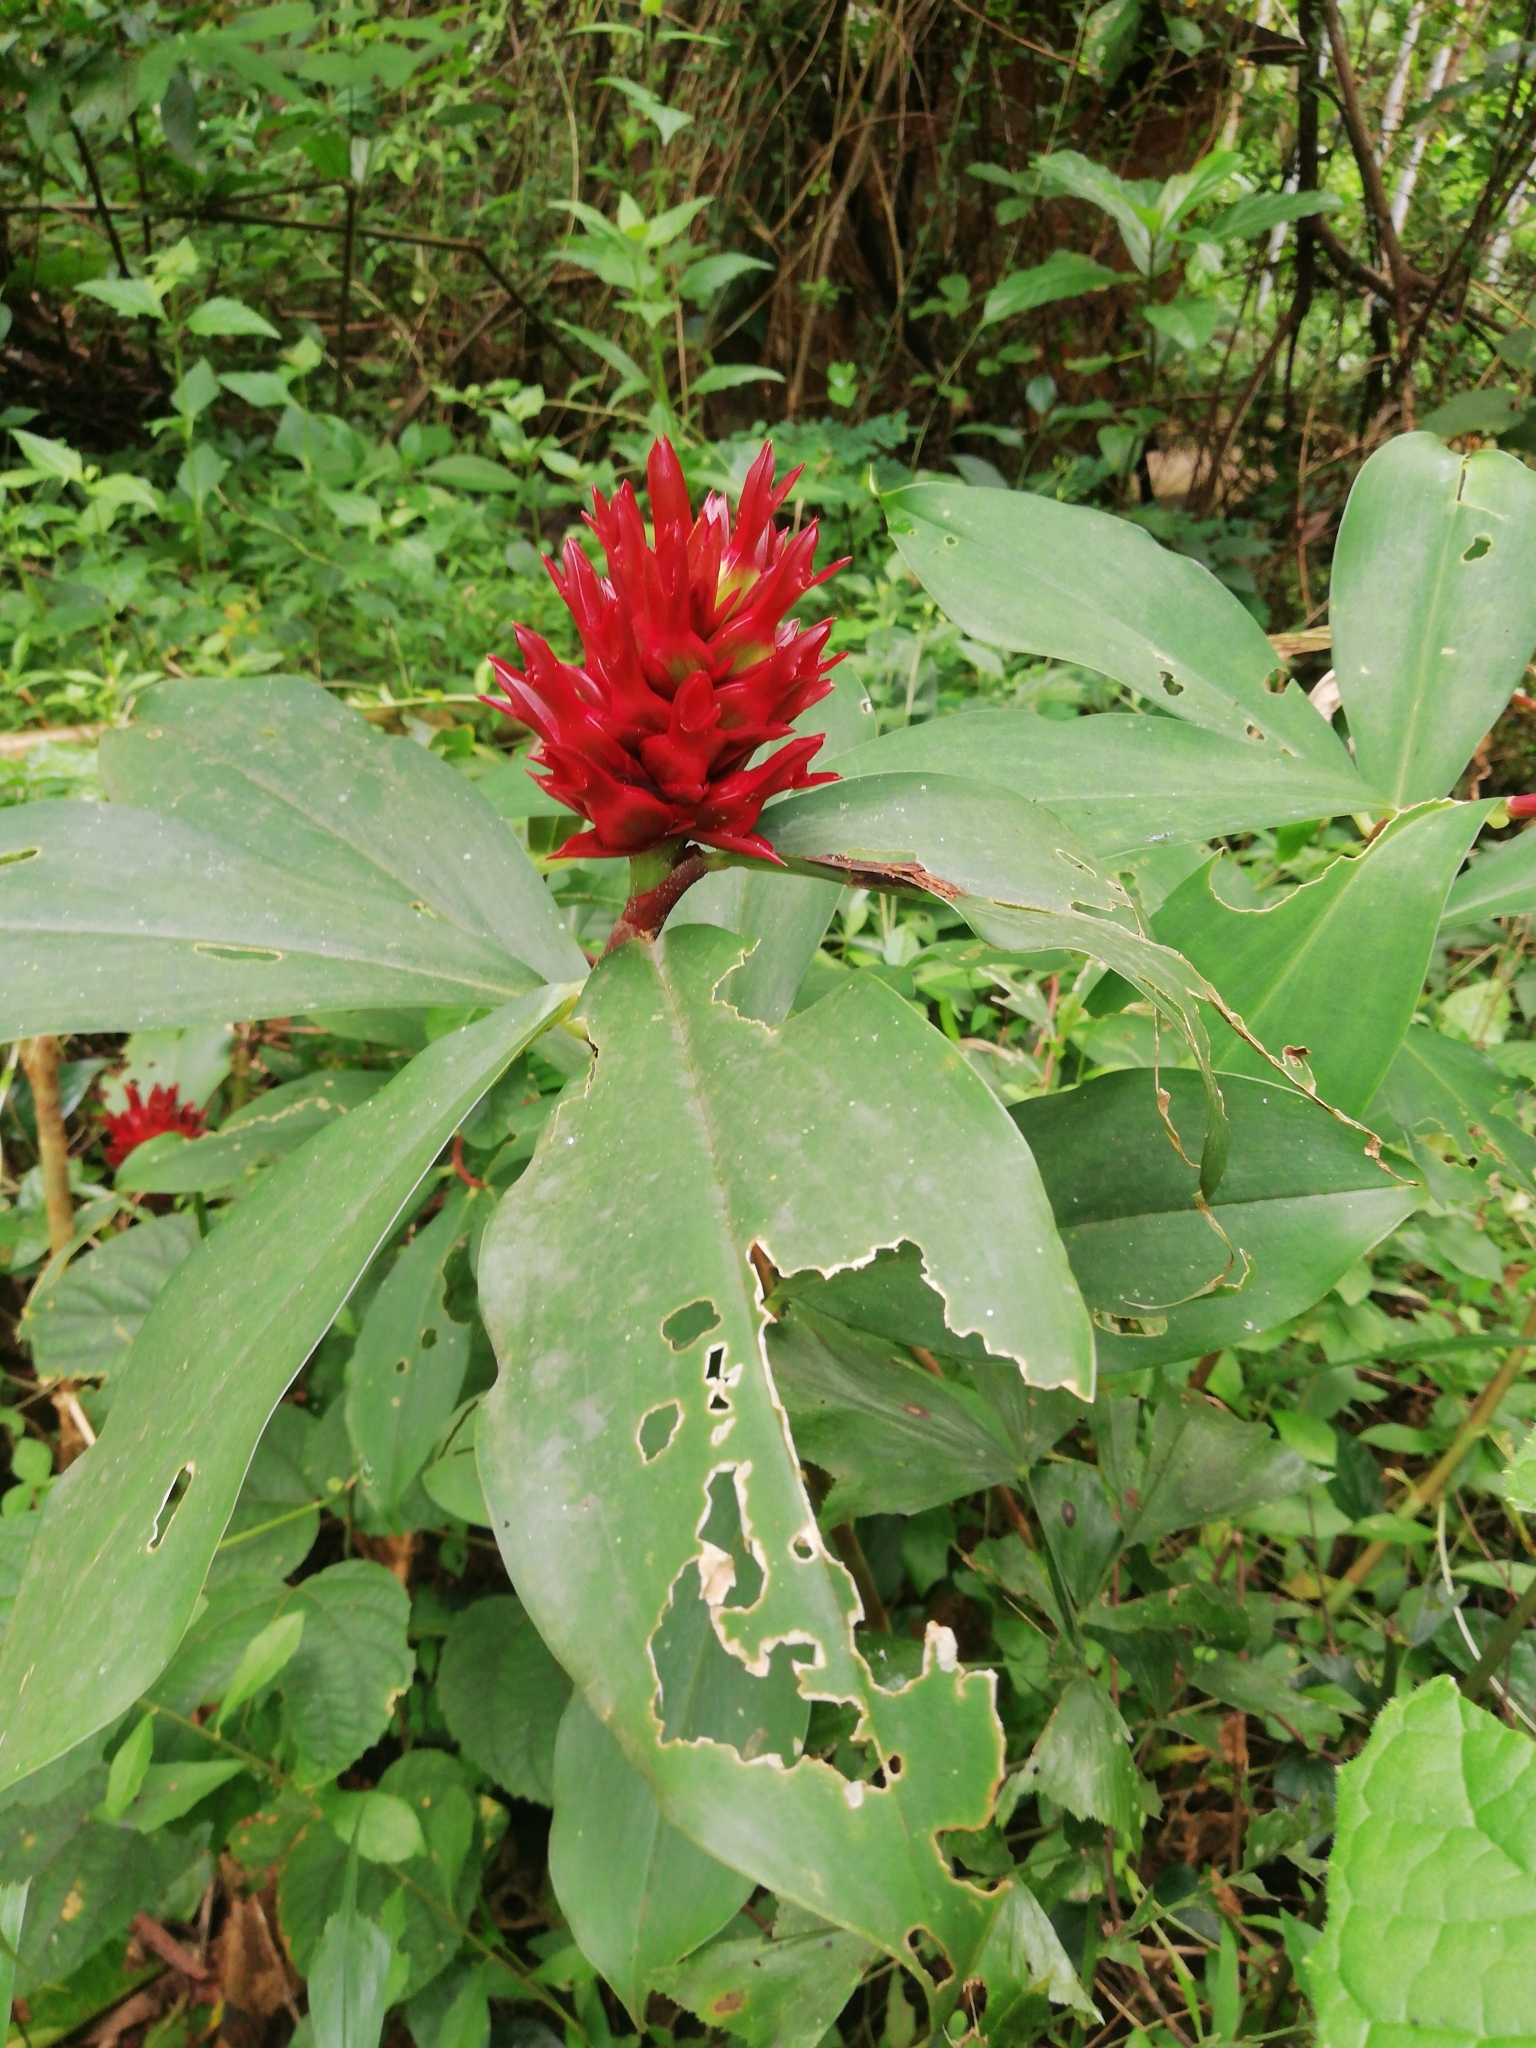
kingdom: Plantae
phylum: Tracheophyta
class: Liliopsida
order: Zingiberales
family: Costaceae
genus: Hellenia
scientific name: Hellenia speciosa
